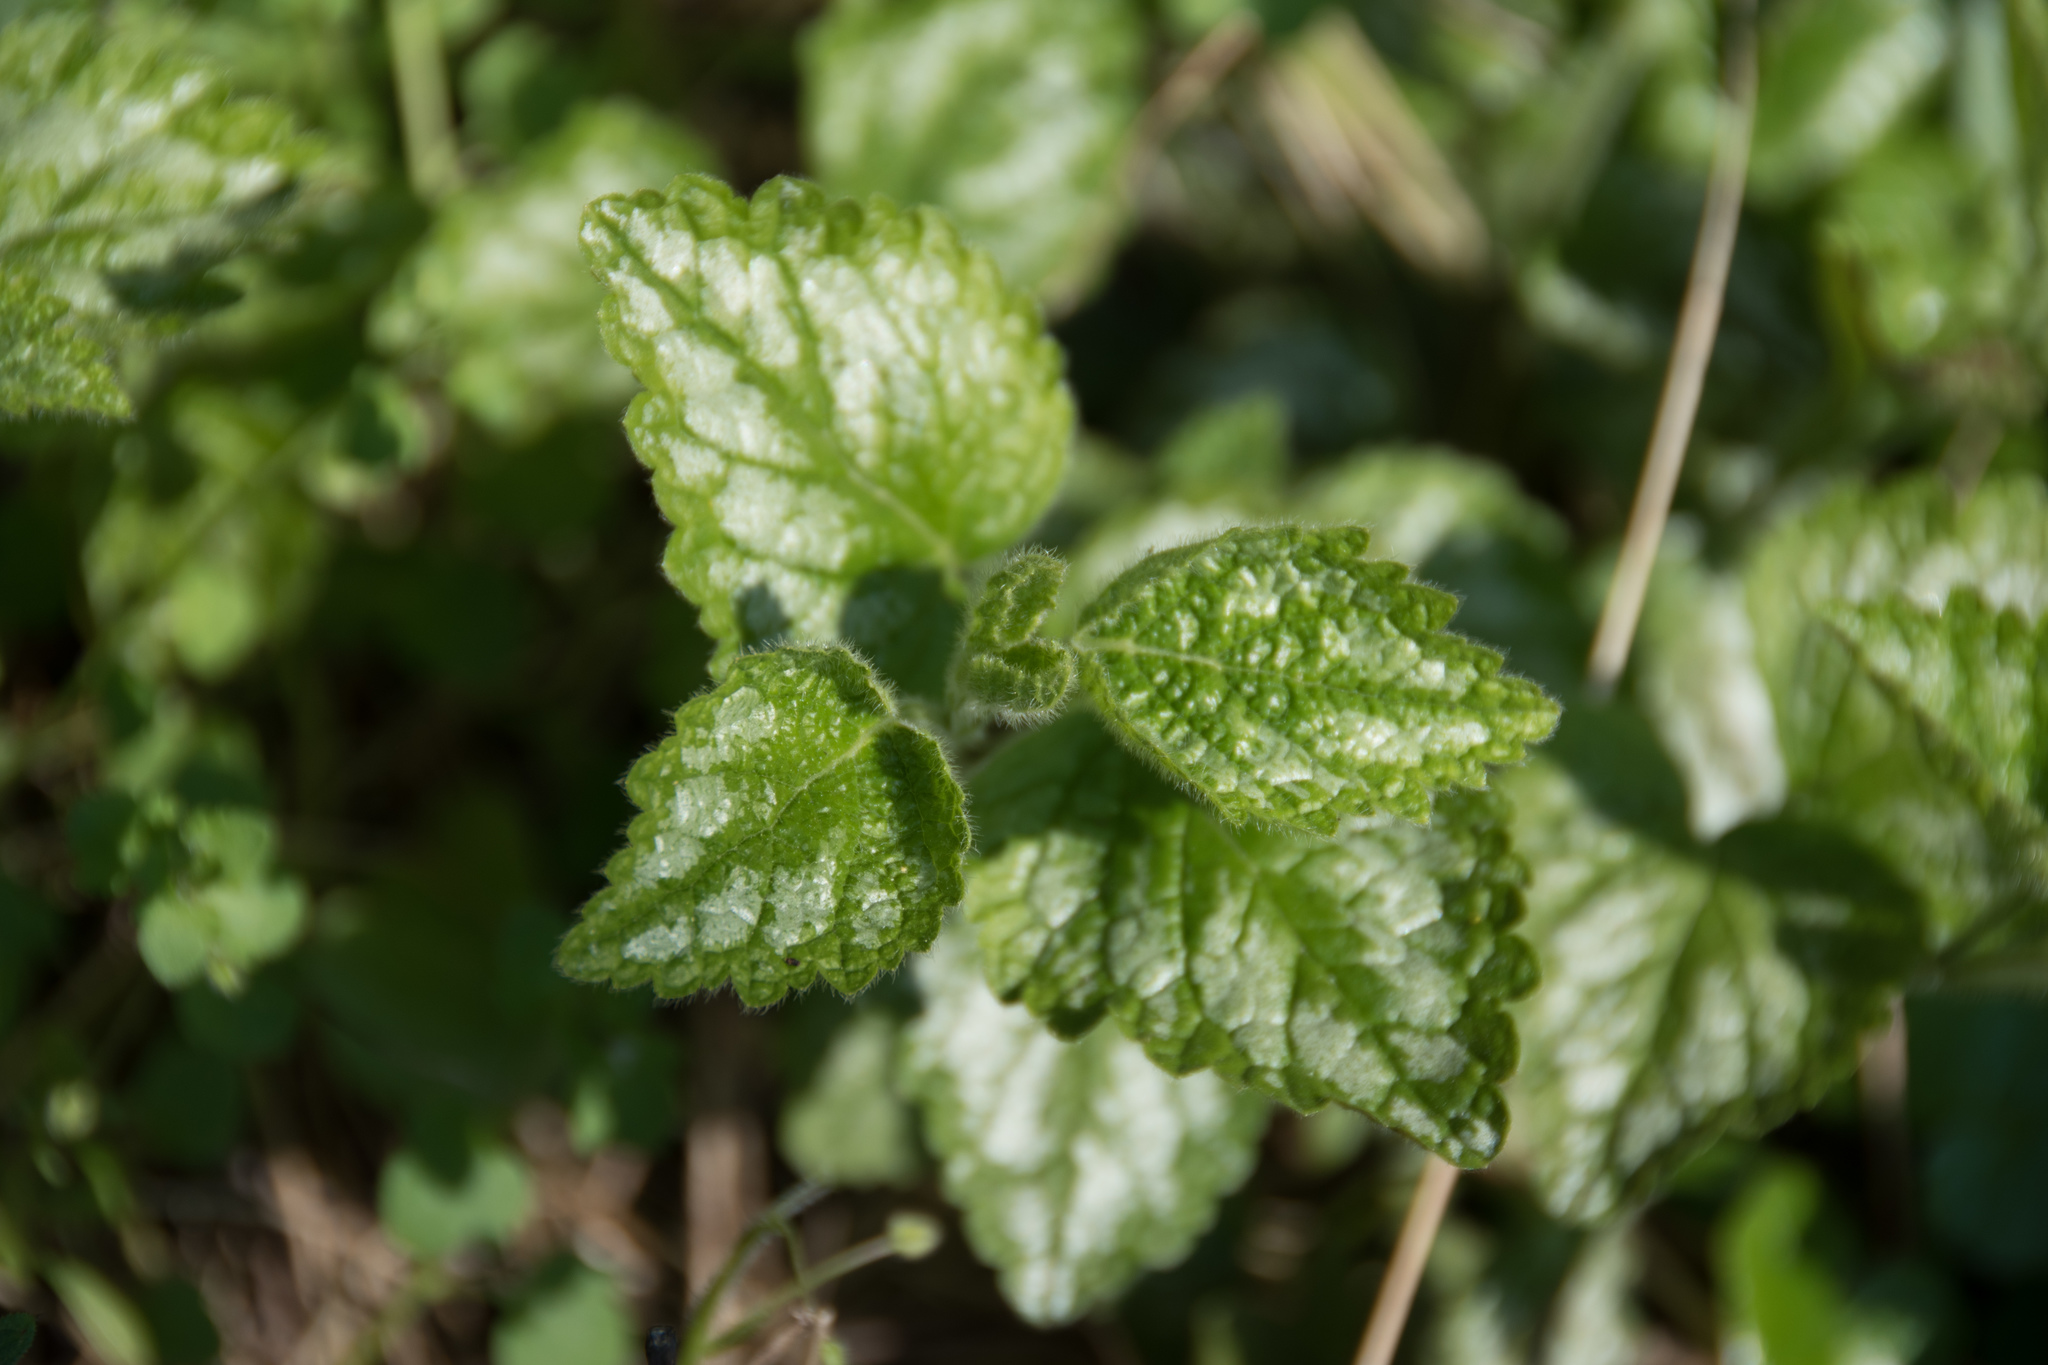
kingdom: Plantae
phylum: Tracheophyta
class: Magnoliopsida
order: Lamiales
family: Lamiaceae
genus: Lamium
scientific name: Lamium galeobdolon
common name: Yellow archangel
